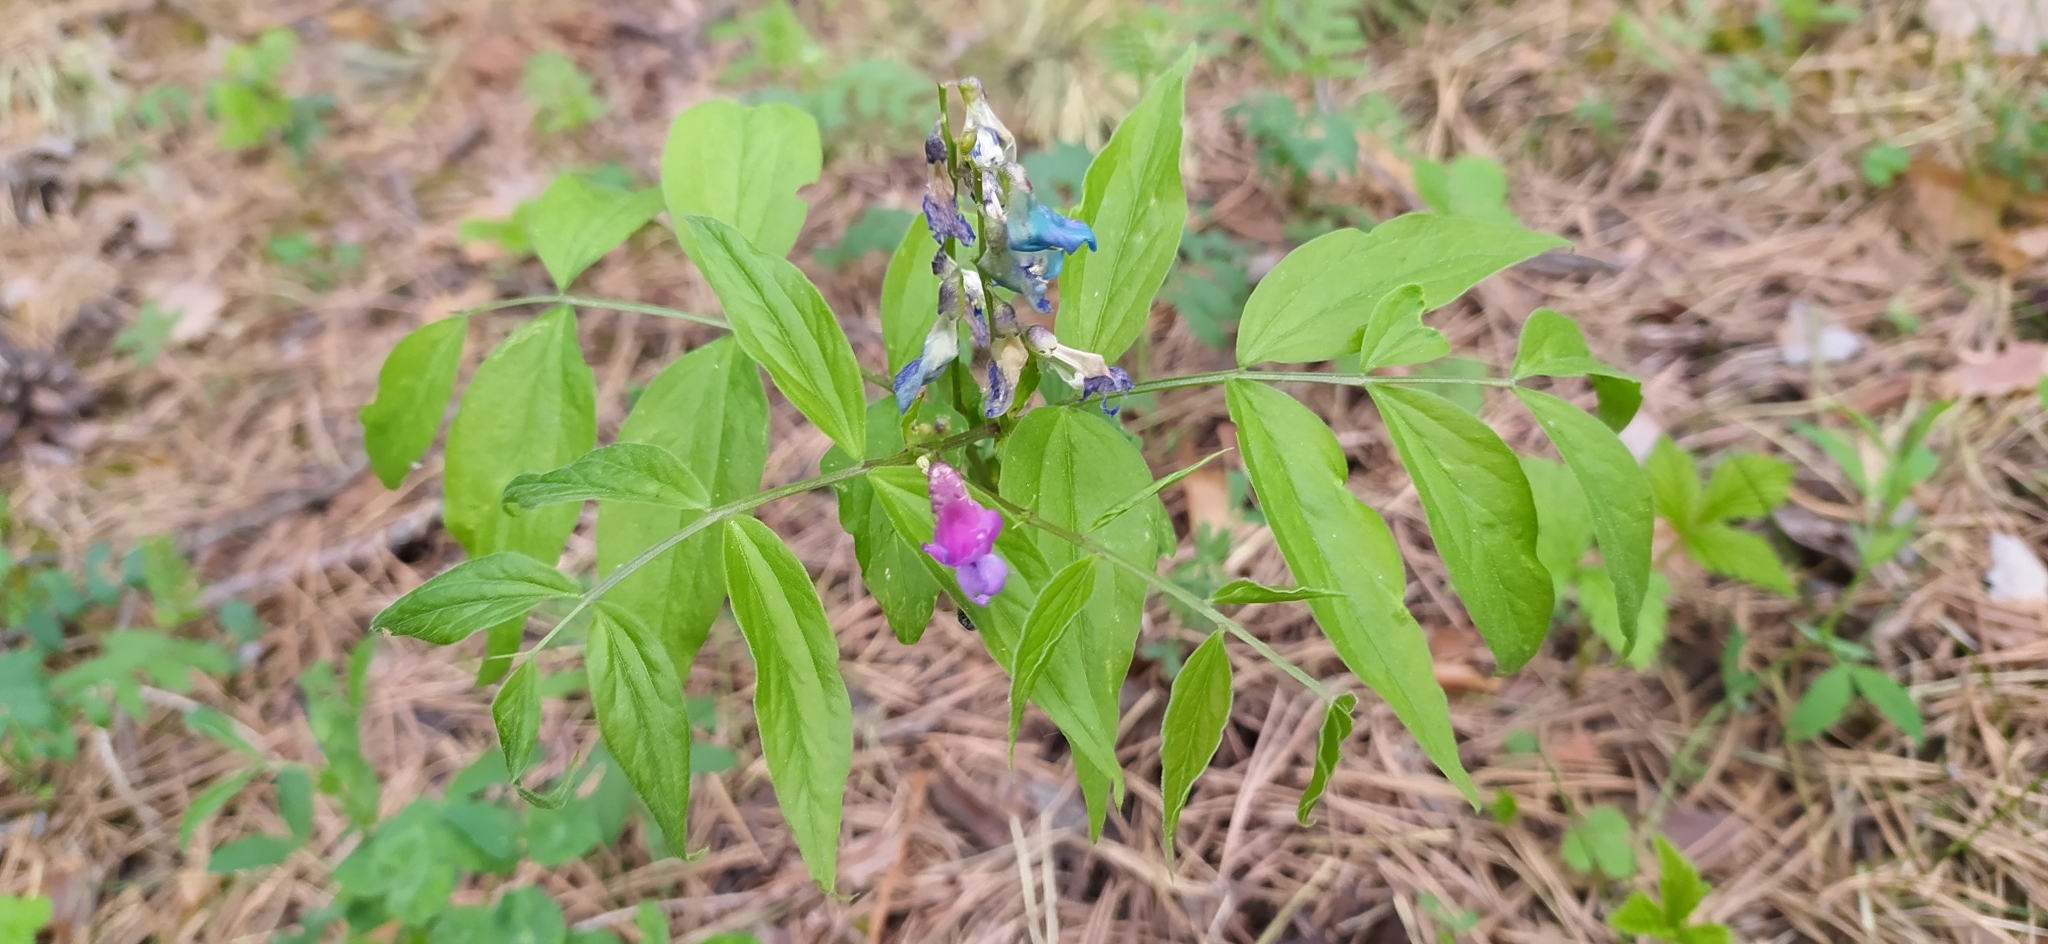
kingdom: Plantae
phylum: Tracheophyta
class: Magnoliopsida
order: Fabales
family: Fabaceae
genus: Lathyrus
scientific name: Lathyrus vernus
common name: Spring pea
